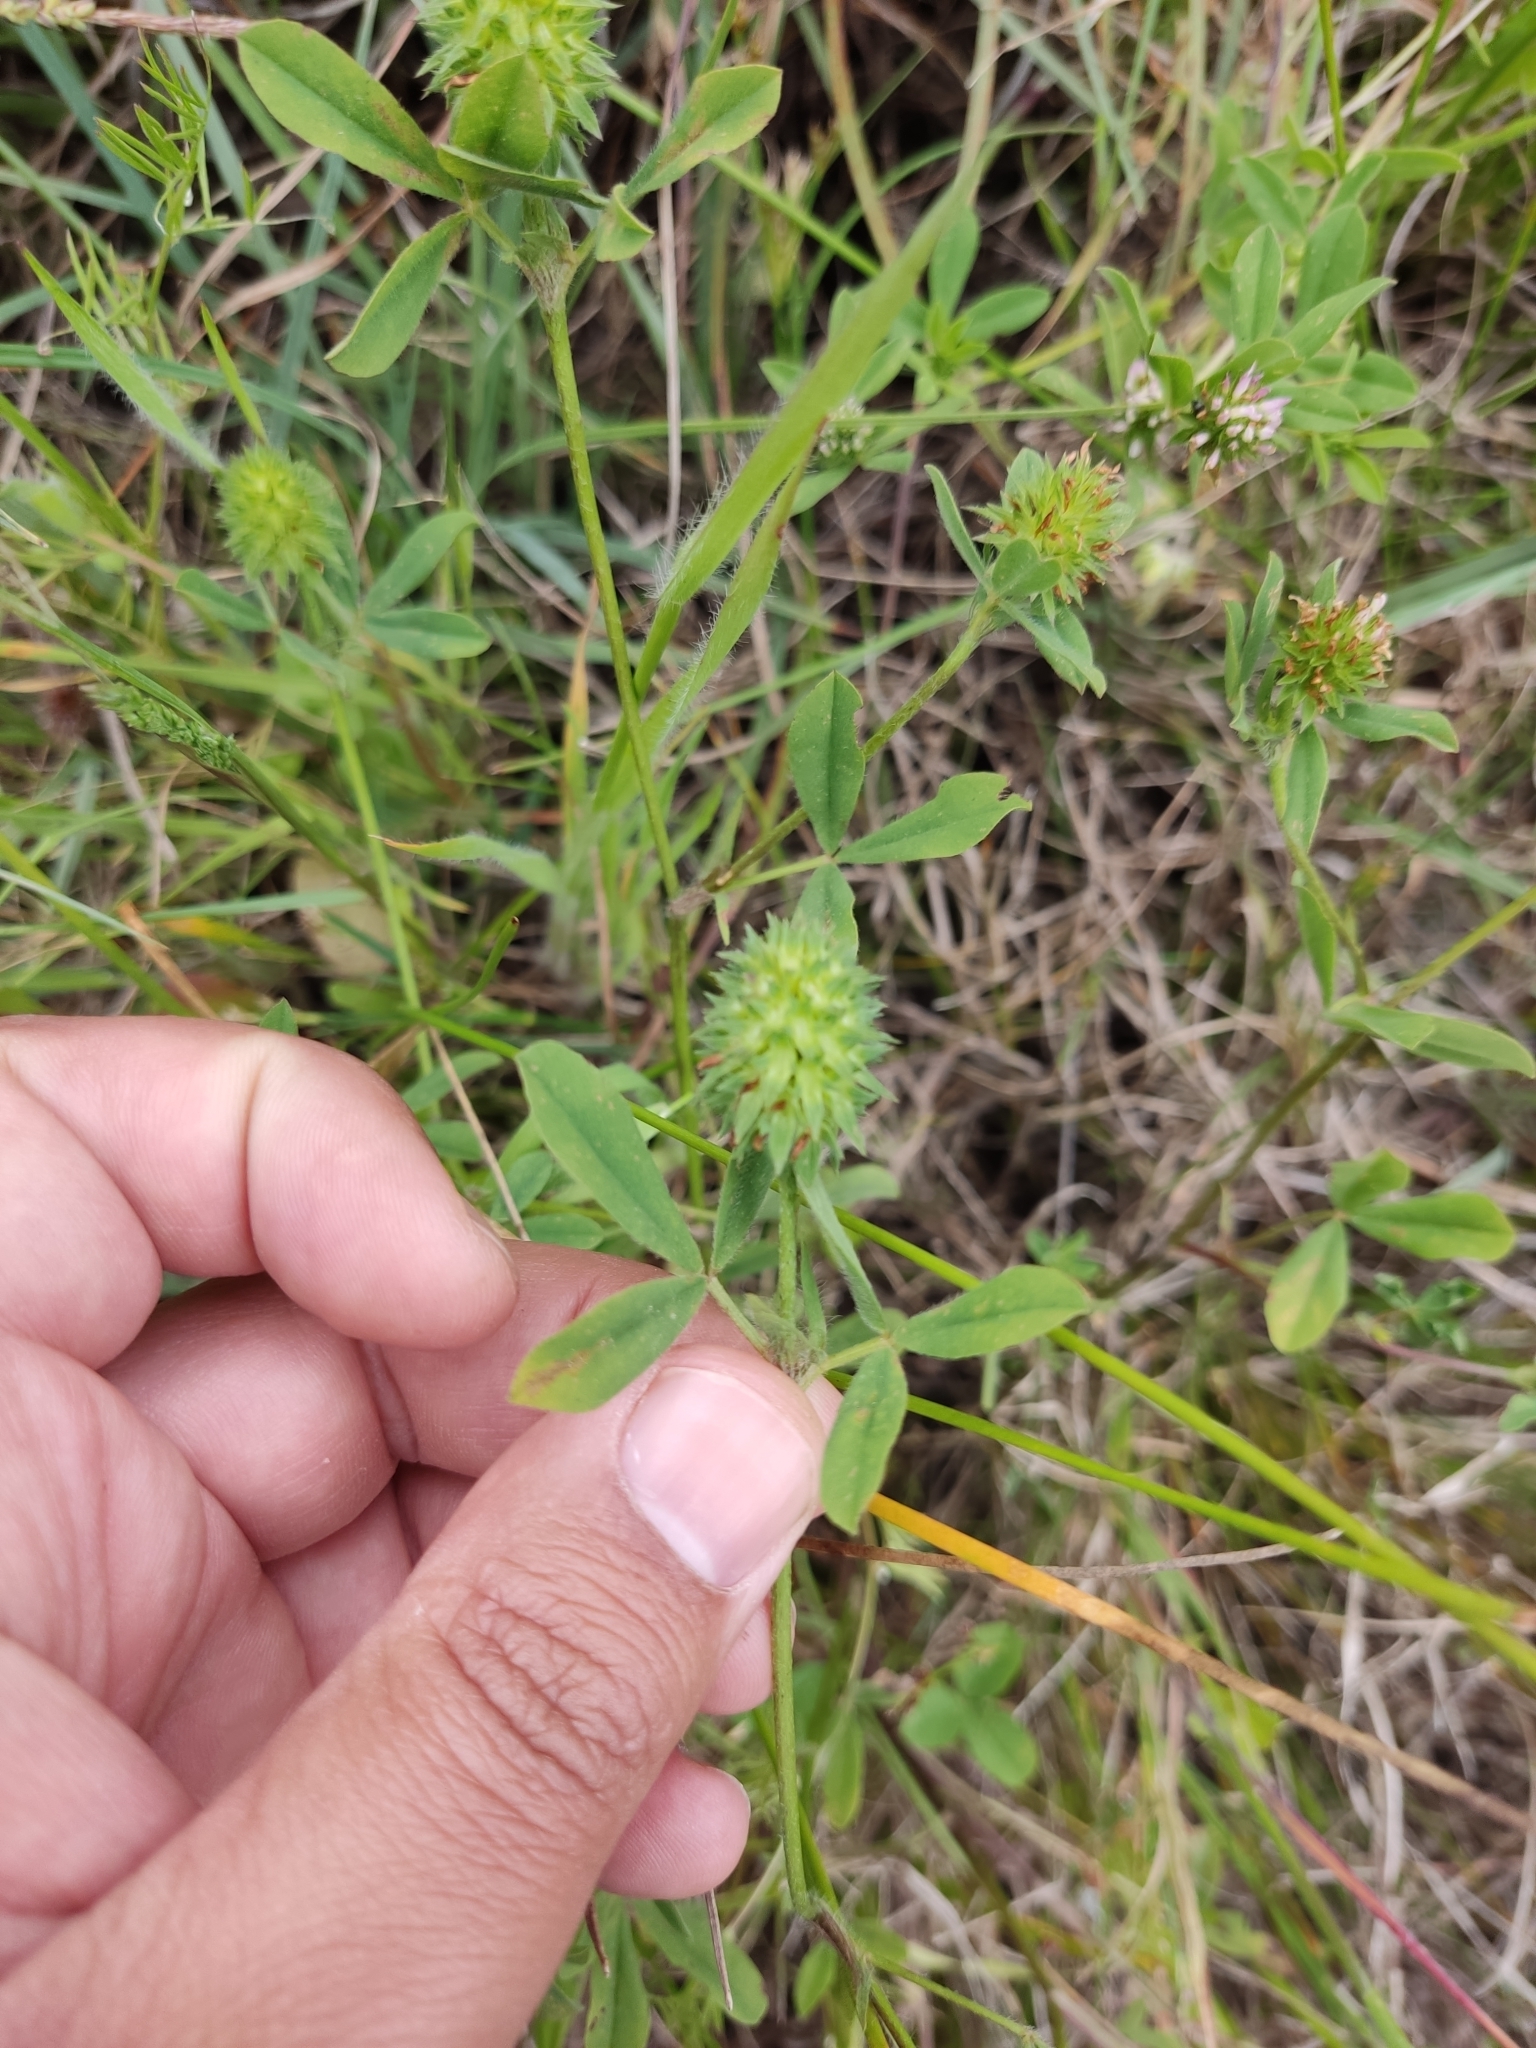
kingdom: Plantae
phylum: Tracheophyta
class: Magnoliopsida
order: Fabales
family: Fabaceae
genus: Trifolium
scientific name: Trifolium squamosum
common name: Sea clover
